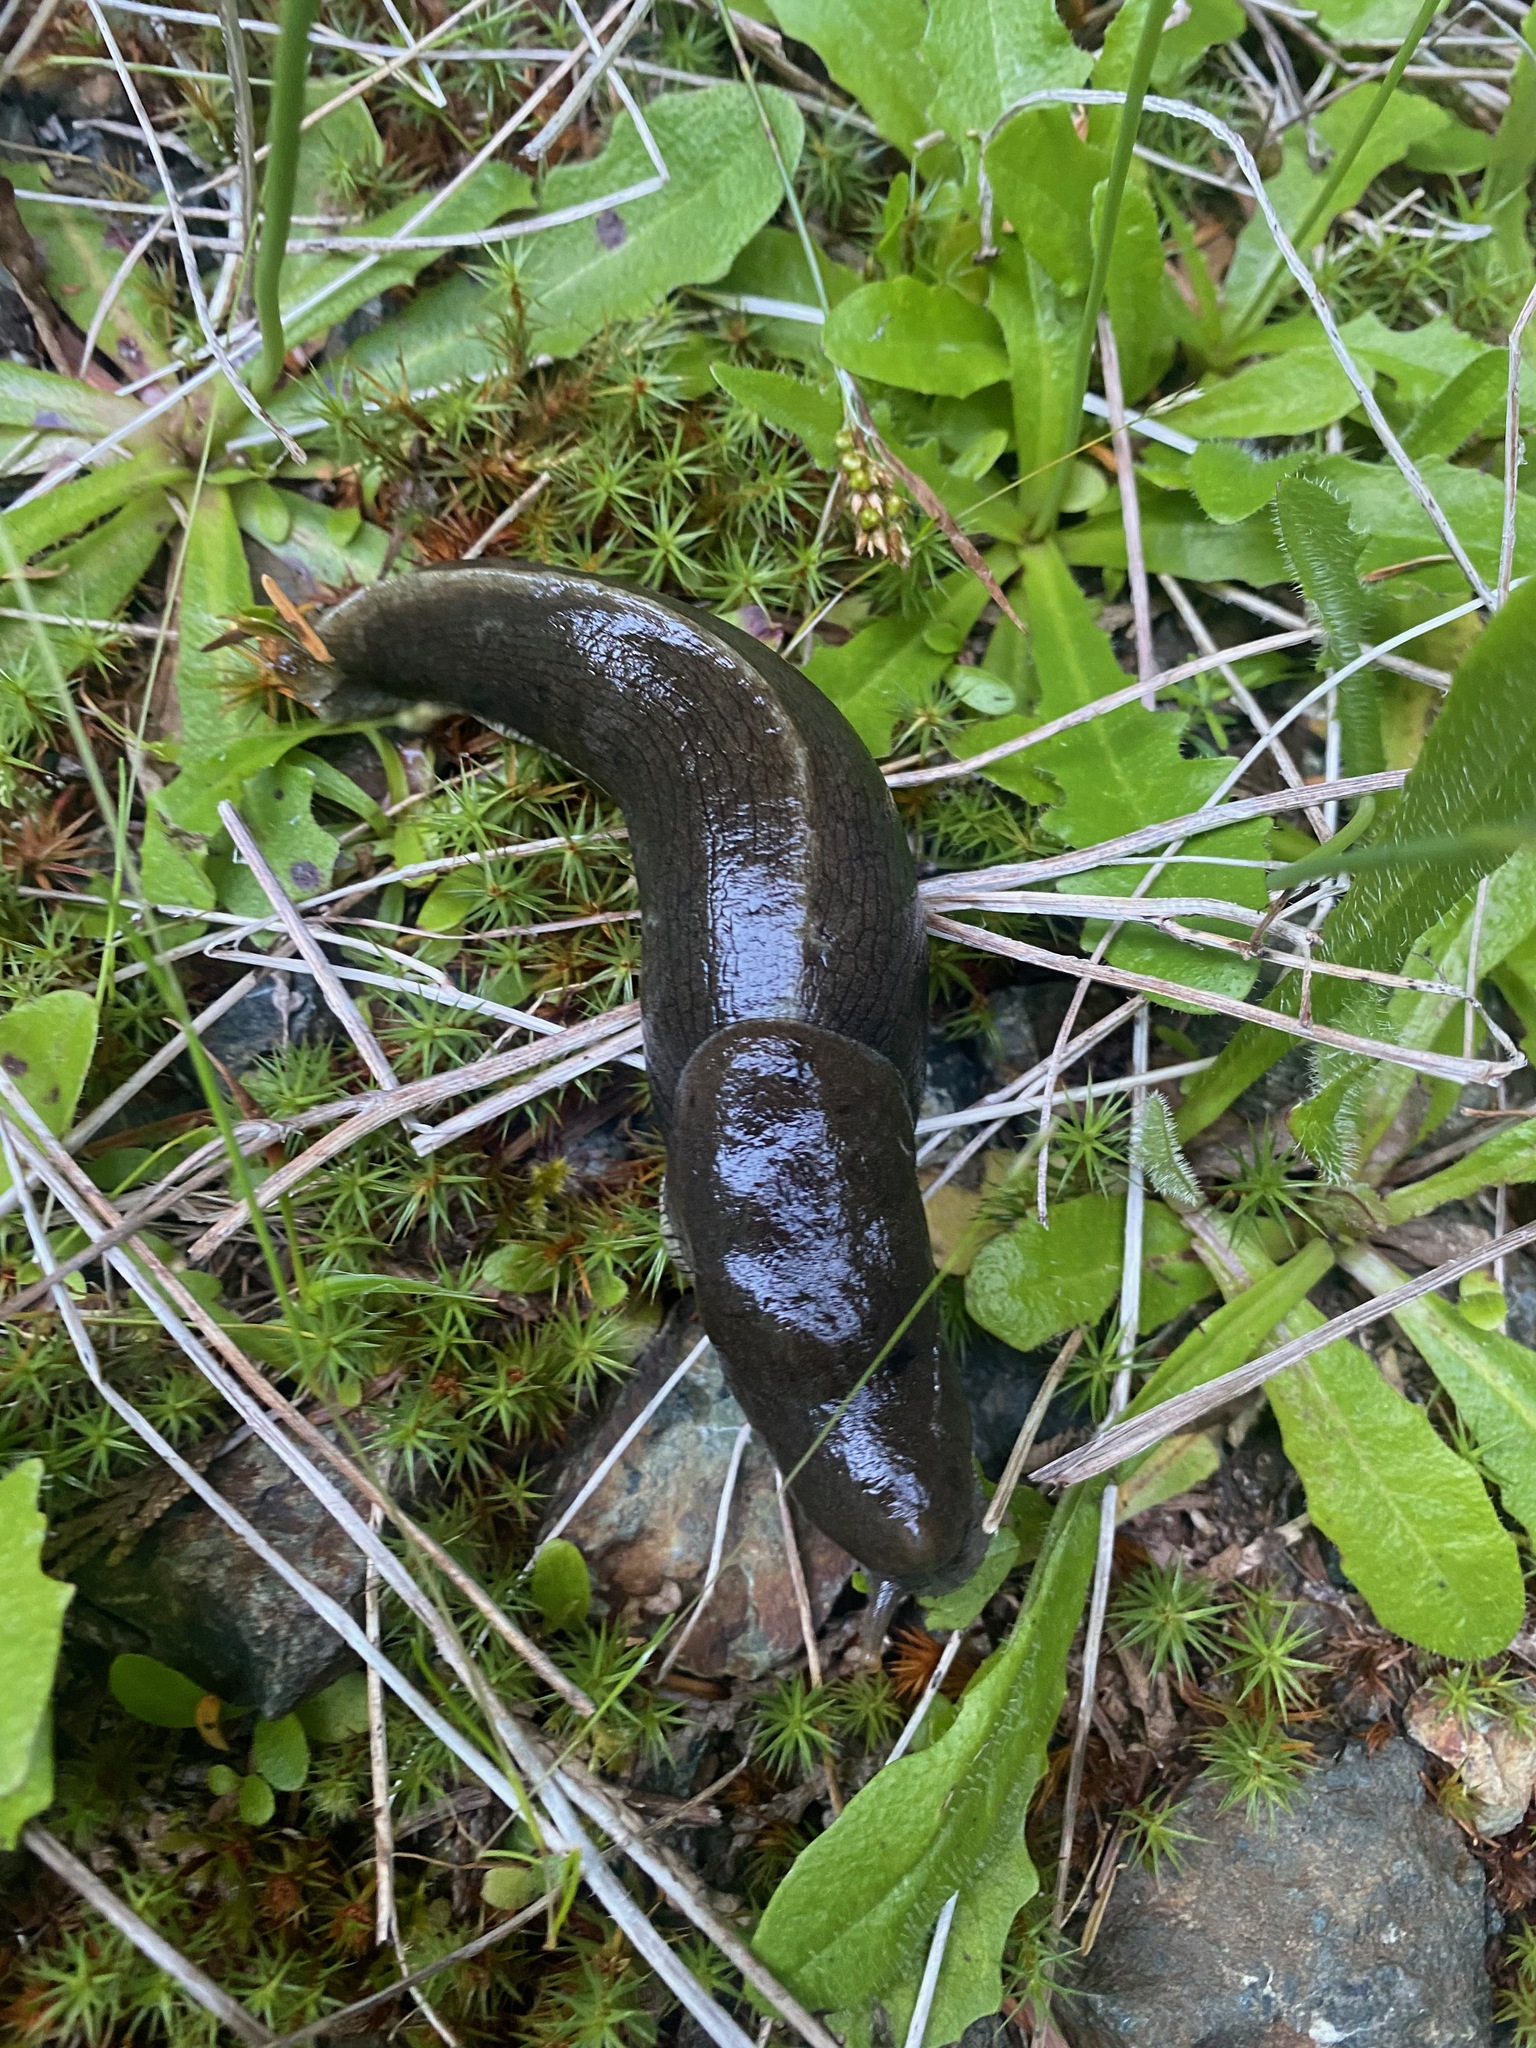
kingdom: Animalia
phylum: Mollusca
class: Gastropoda
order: Stylommatophora
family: Ariolimacidae
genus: Ariolimax
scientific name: Ariolimax columbianus
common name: Pacific banana slug
